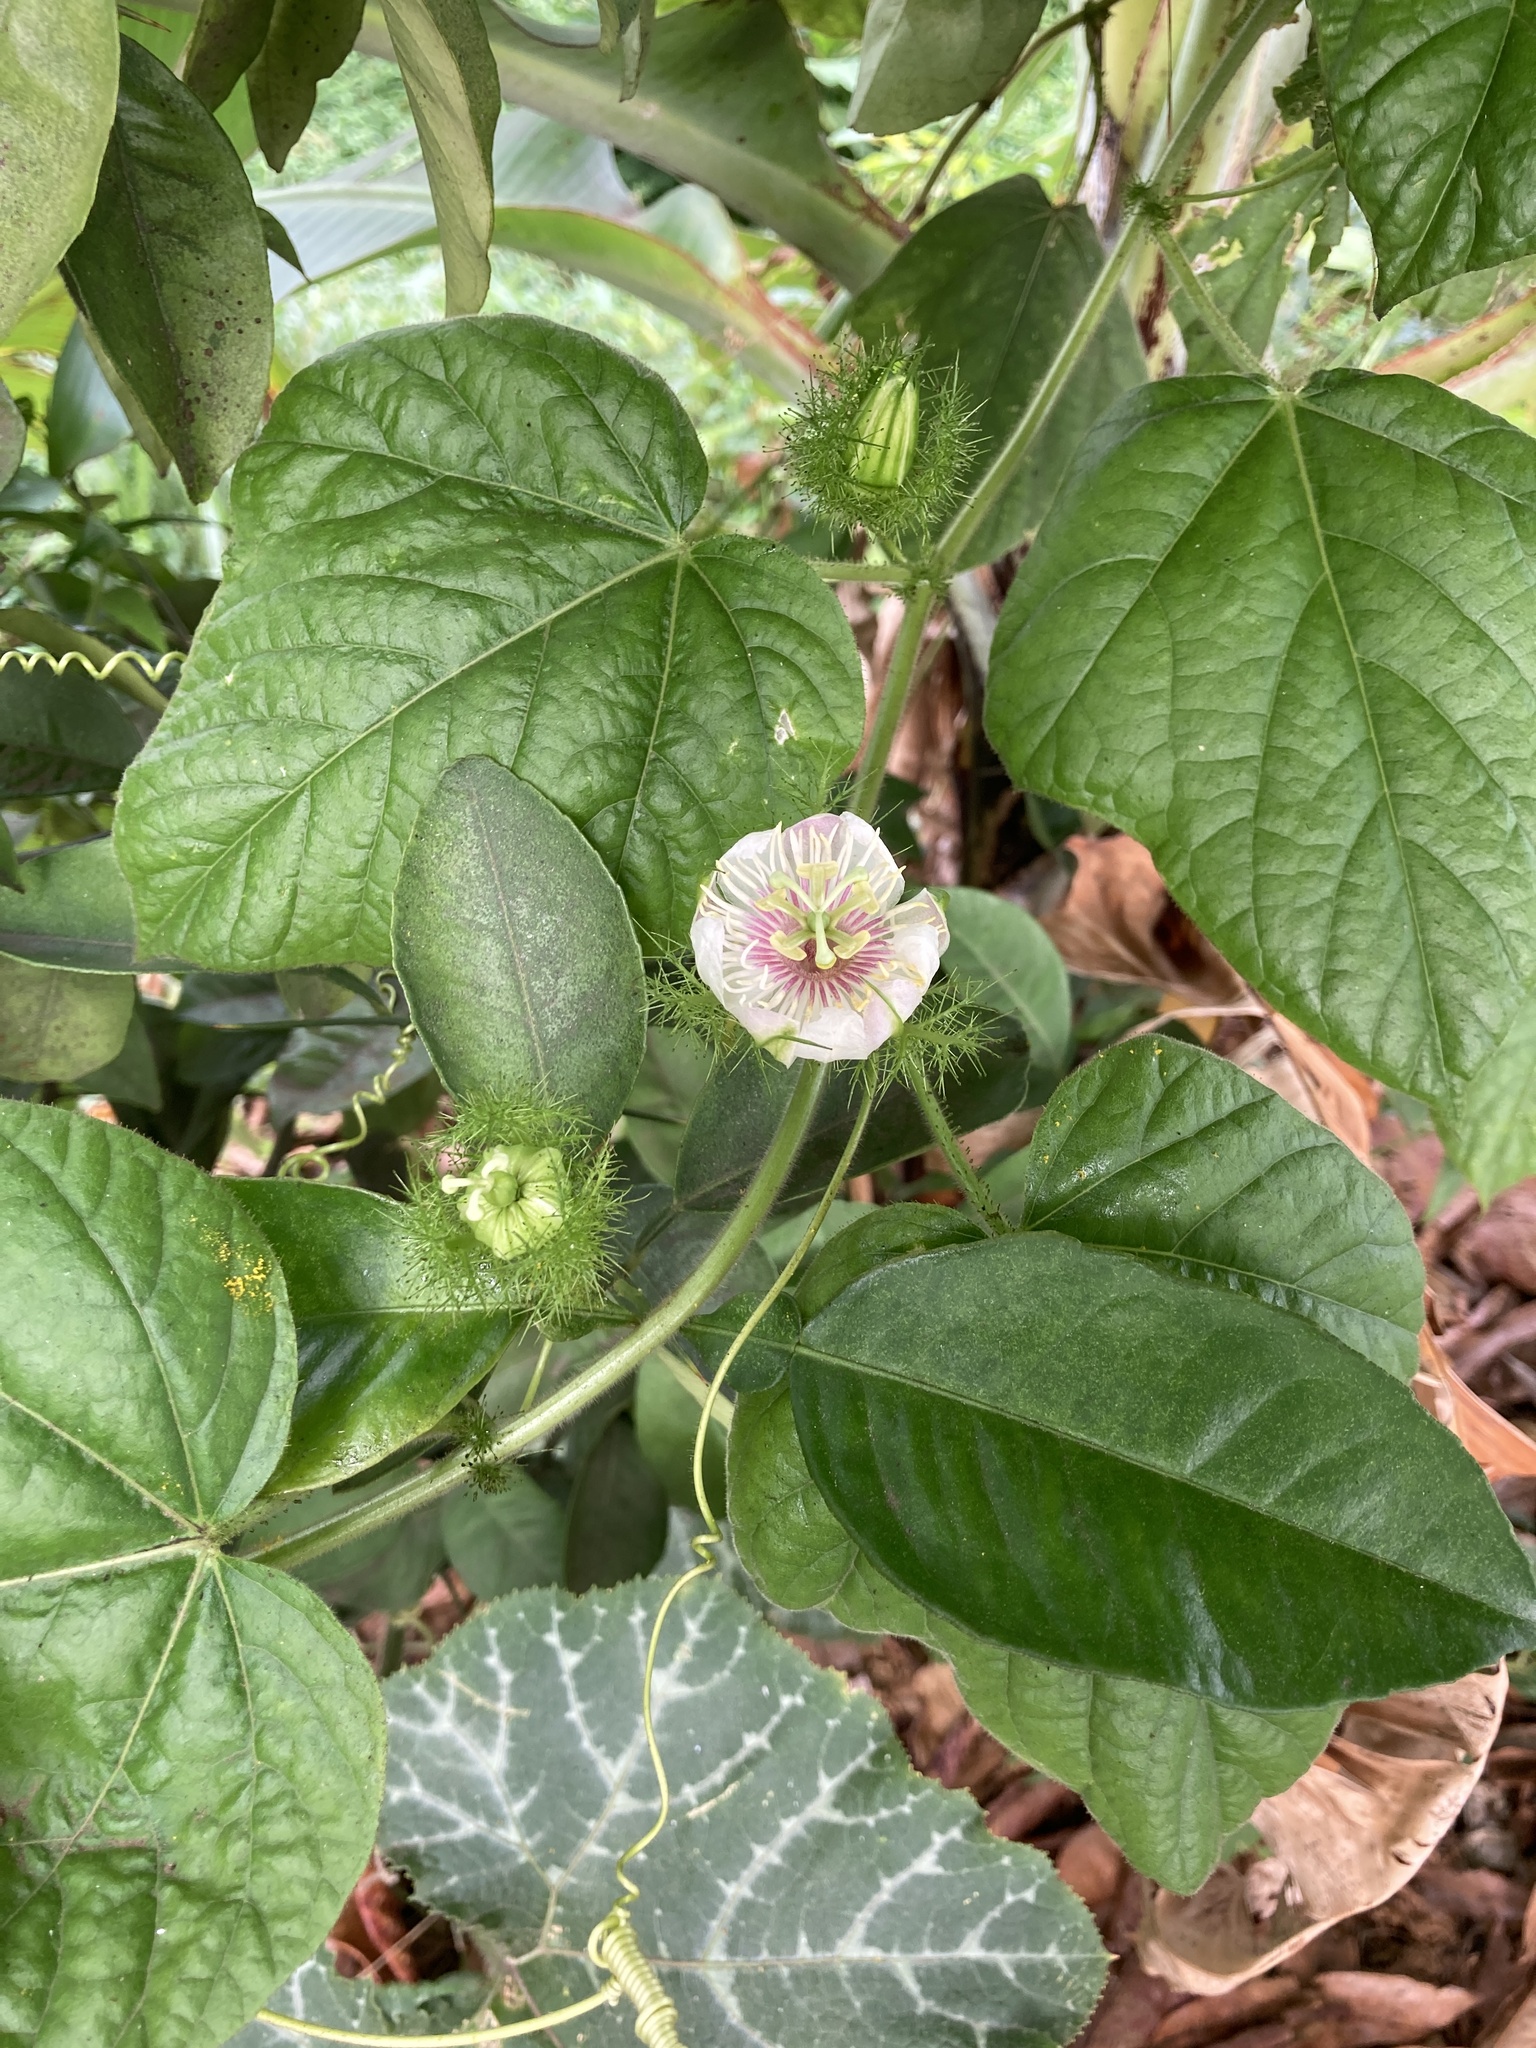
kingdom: Plantae
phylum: Tracheophyta
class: Magnoliopsida
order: Malpighiales
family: Passifloraceae
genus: Passiflora
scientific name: Passiflora foetida
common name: Fetid passionflower
